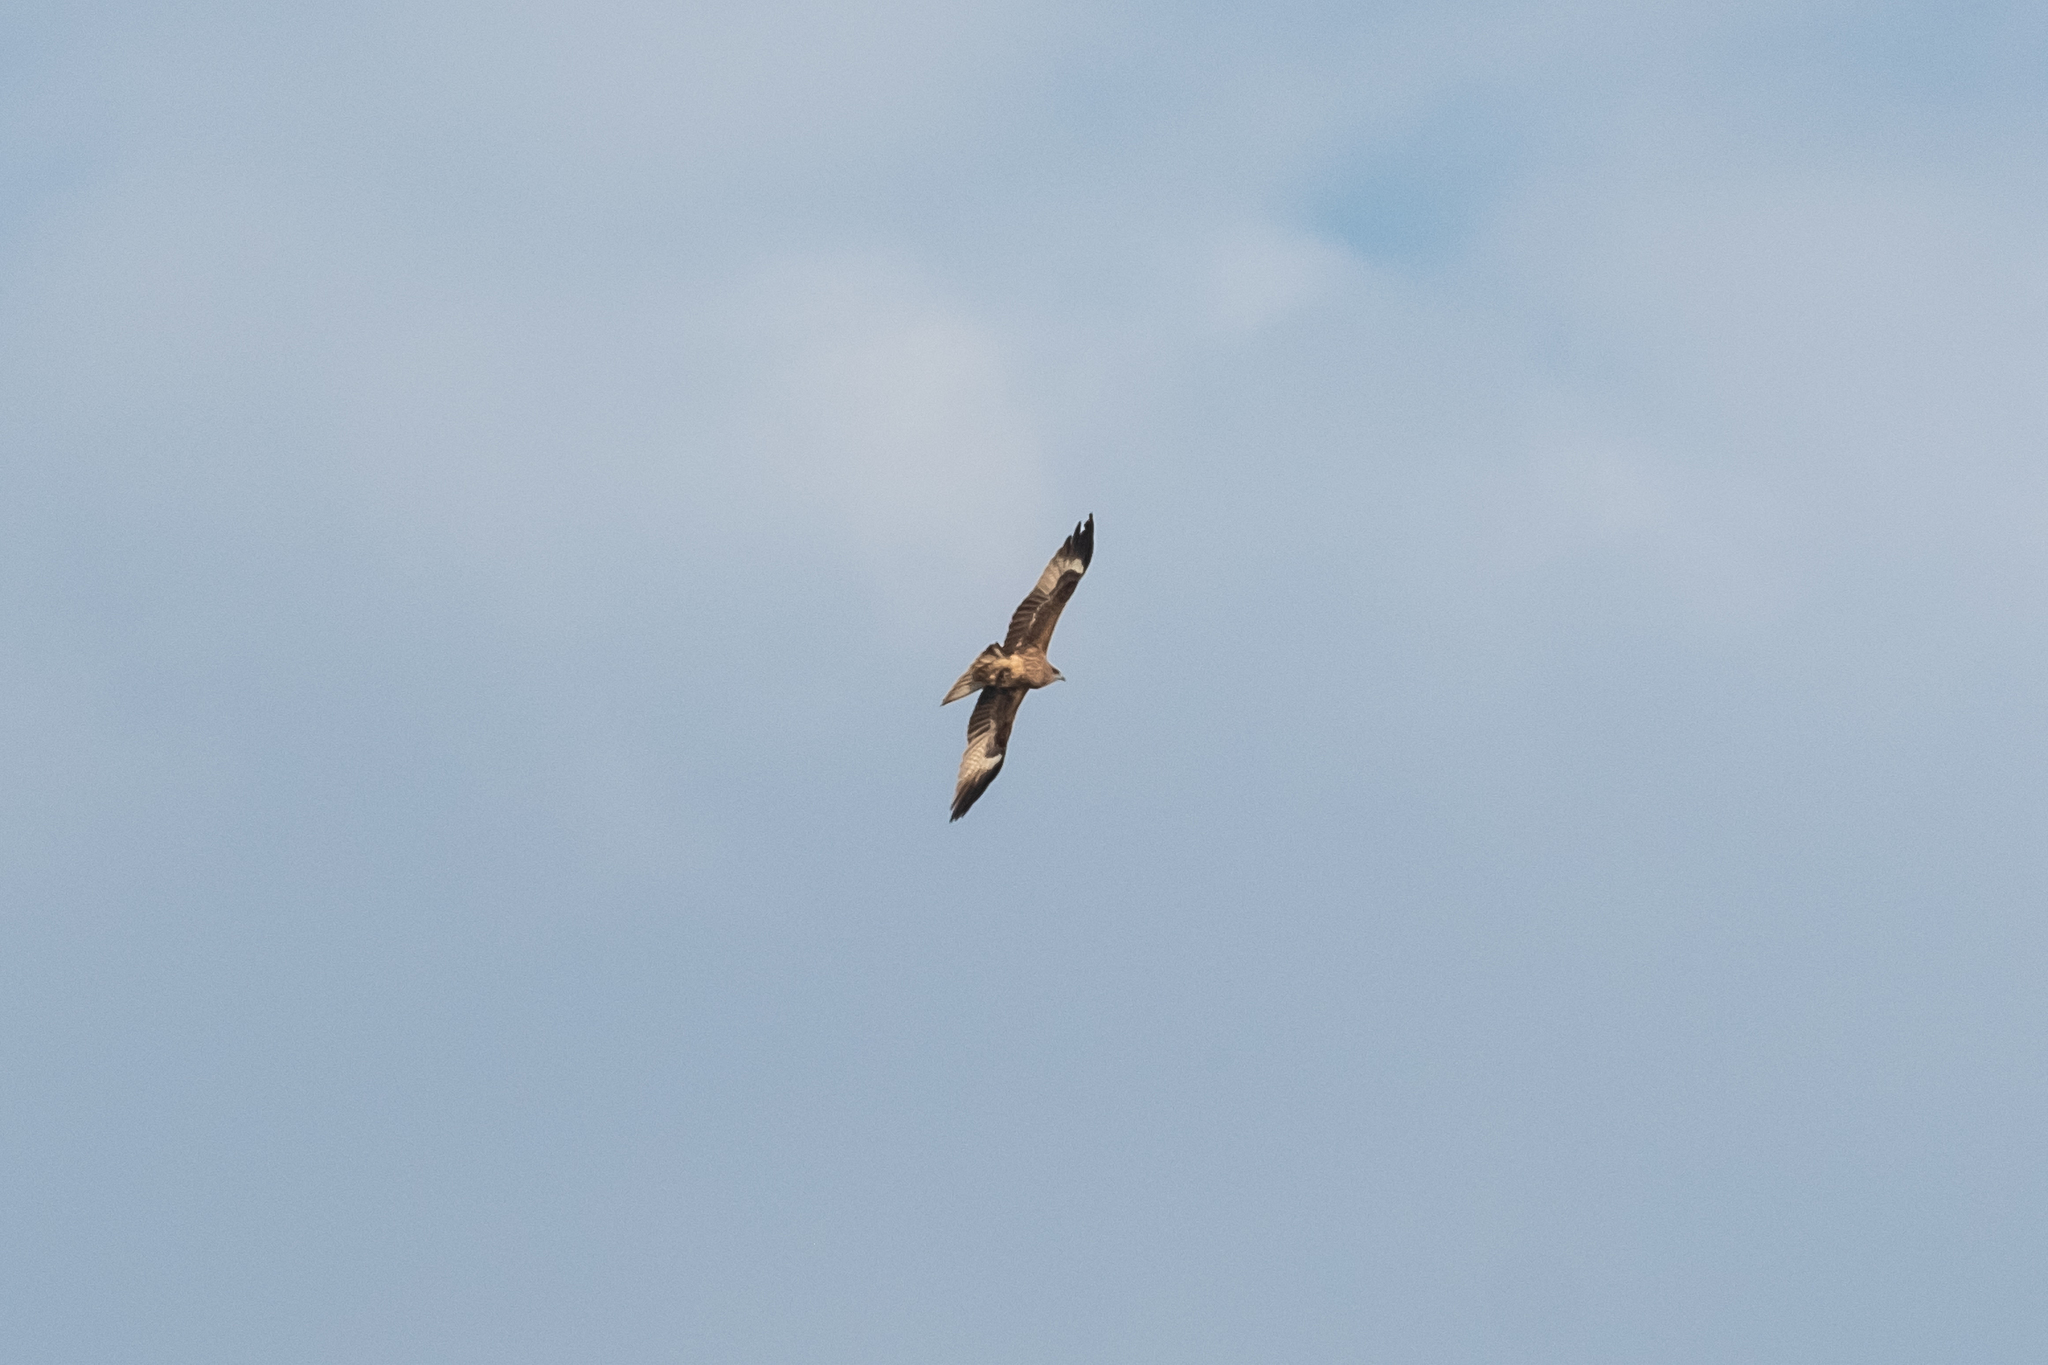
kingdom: Animalia
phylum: Chordata
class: Aves
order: Accipitriformes
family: Accipitridae
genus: Milvus
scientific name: Milvus migrans
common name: Black kite
